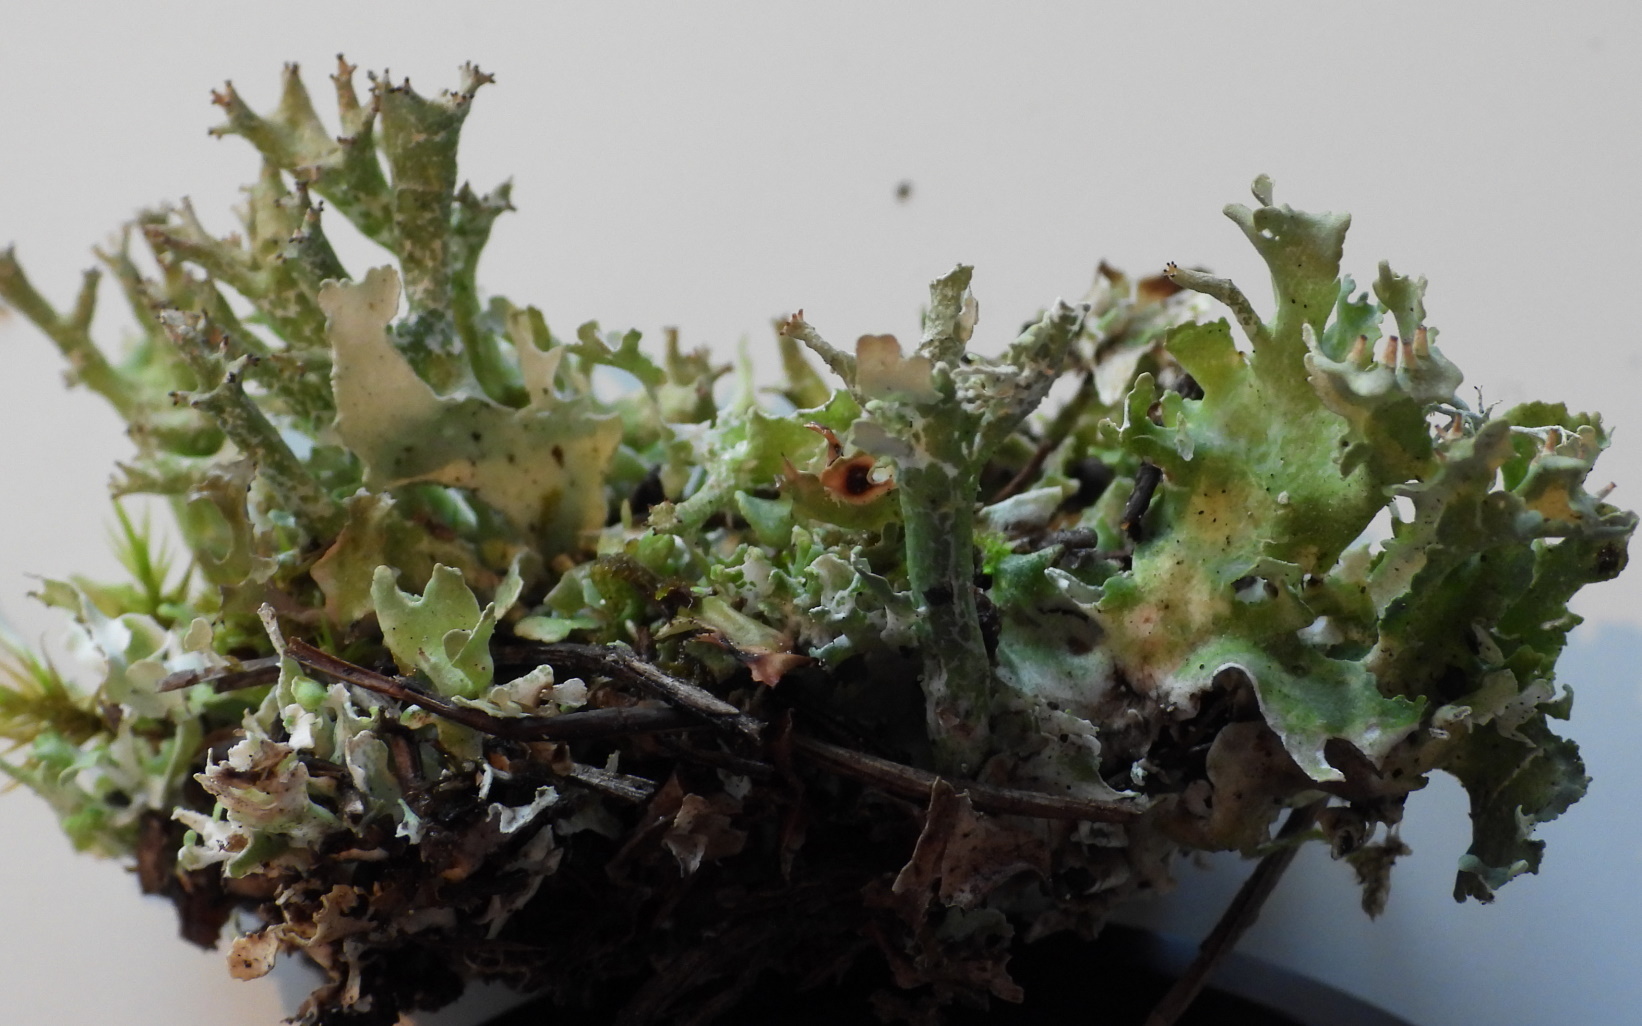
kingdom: Fungi
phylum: Ascomycota
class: Lecanoromycetes
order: Lecanorales
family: Cladoniaceae
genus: Cladonia
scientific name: Cladonia turgida
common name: Crazy scale lichen
